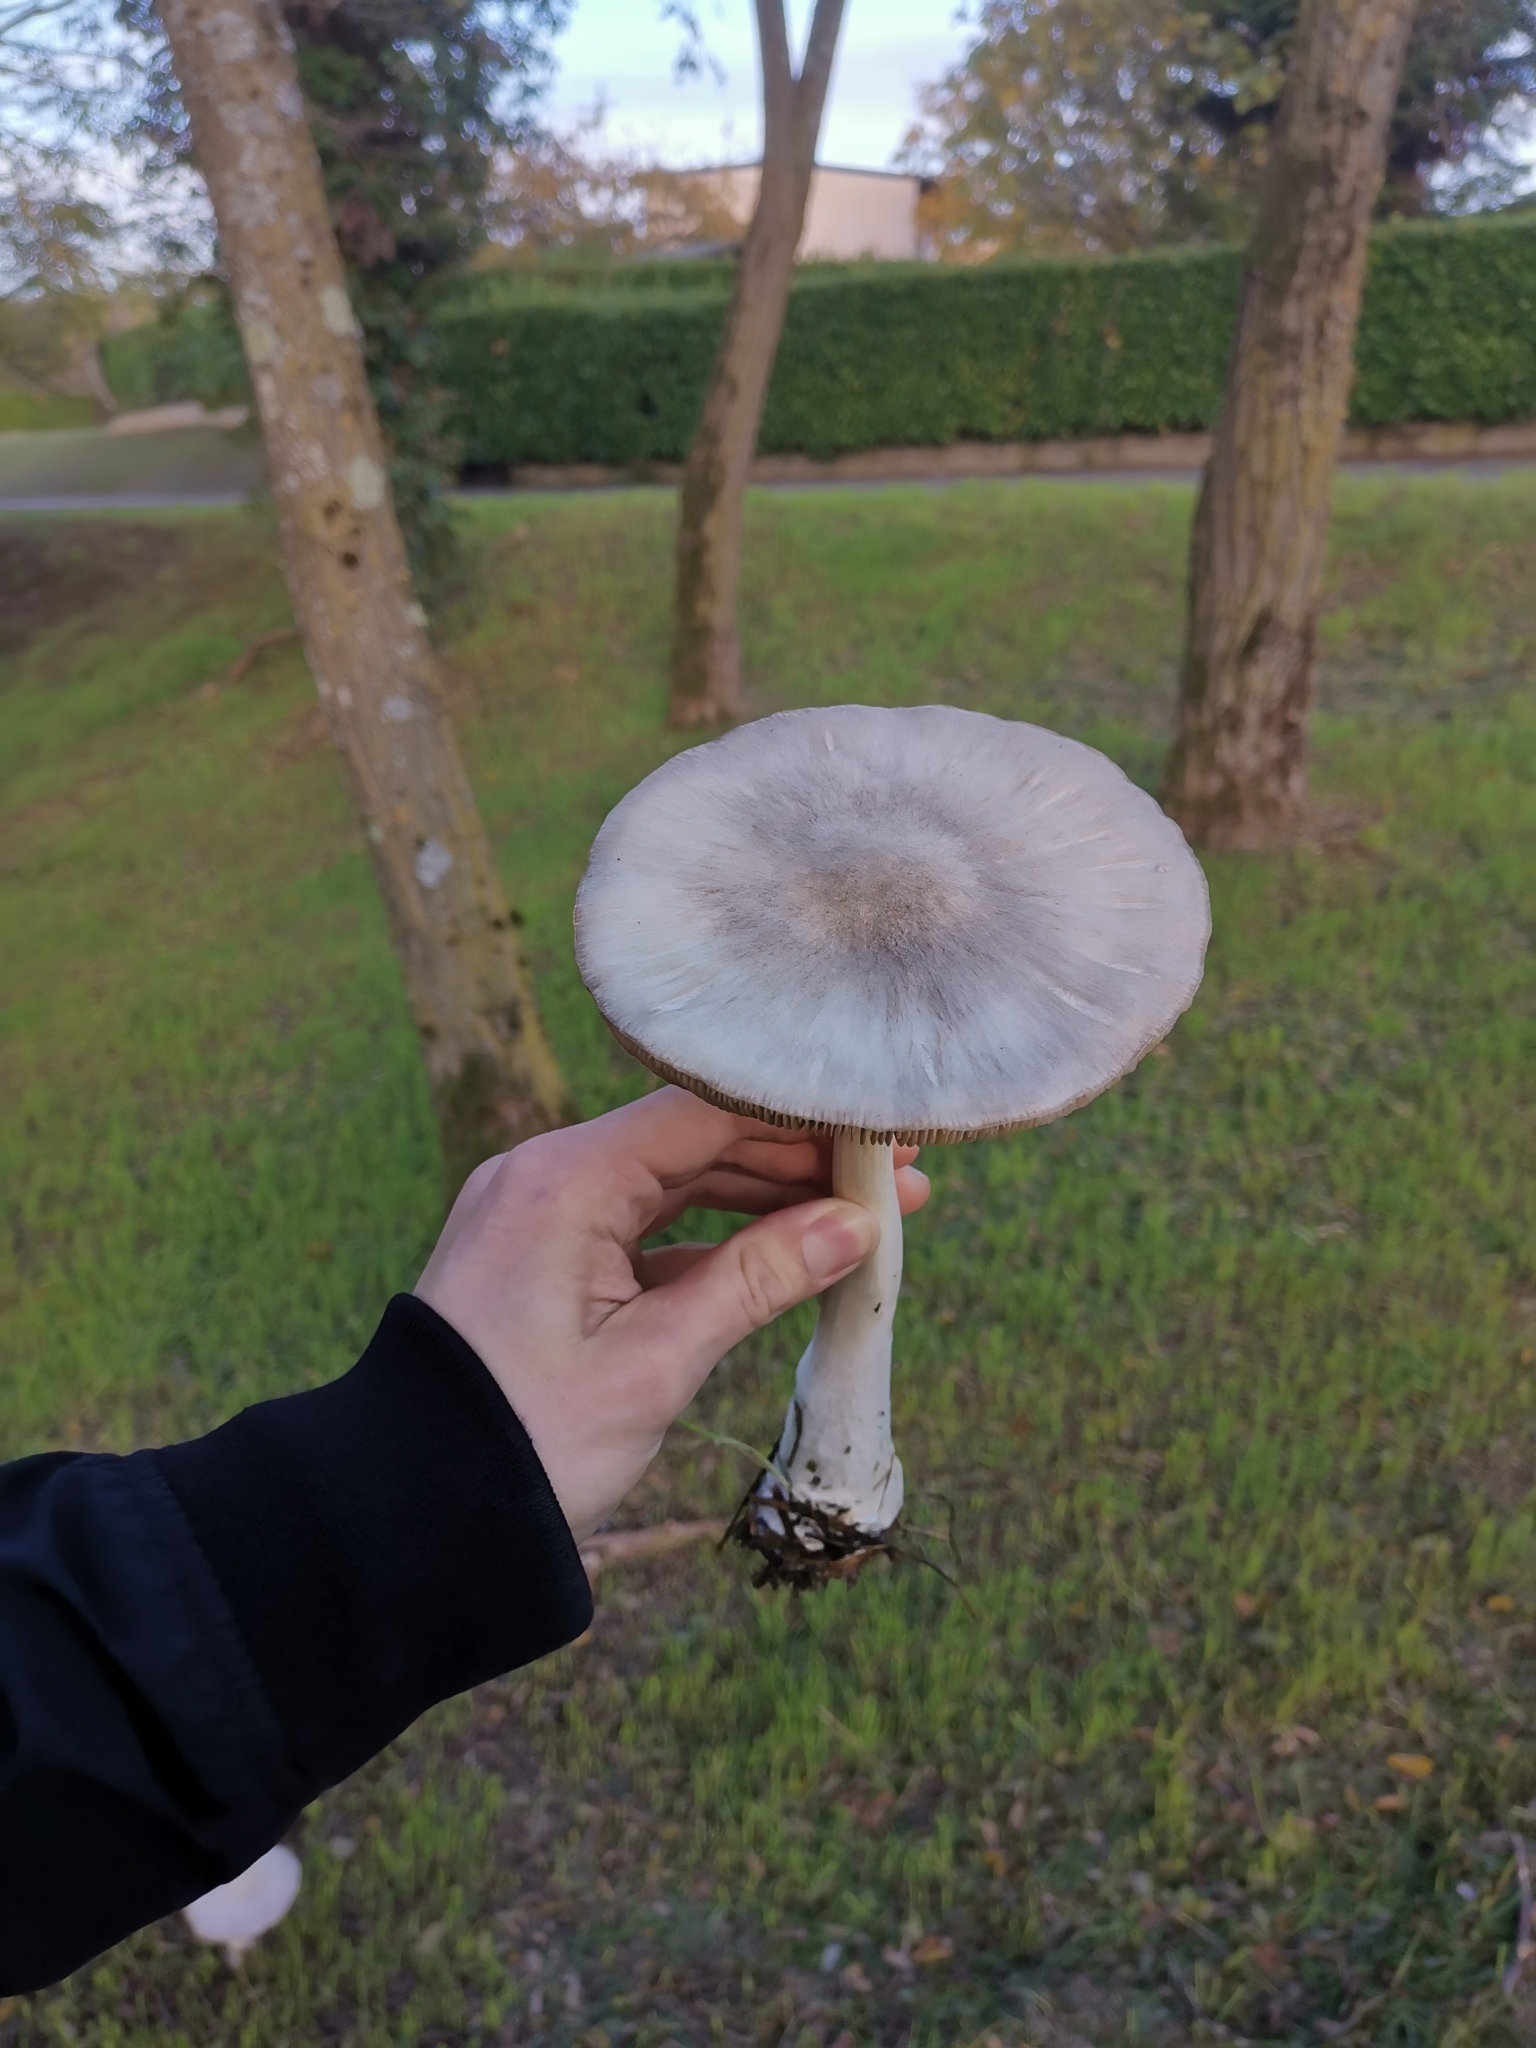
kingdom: Fungi
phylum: Basidiomycota
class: Agaricomycetes
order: Agaricales
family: Pluteaceae
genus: Volvopluteus
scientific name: Volvopluteus gloiocephalus
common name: Stubble rosegill
